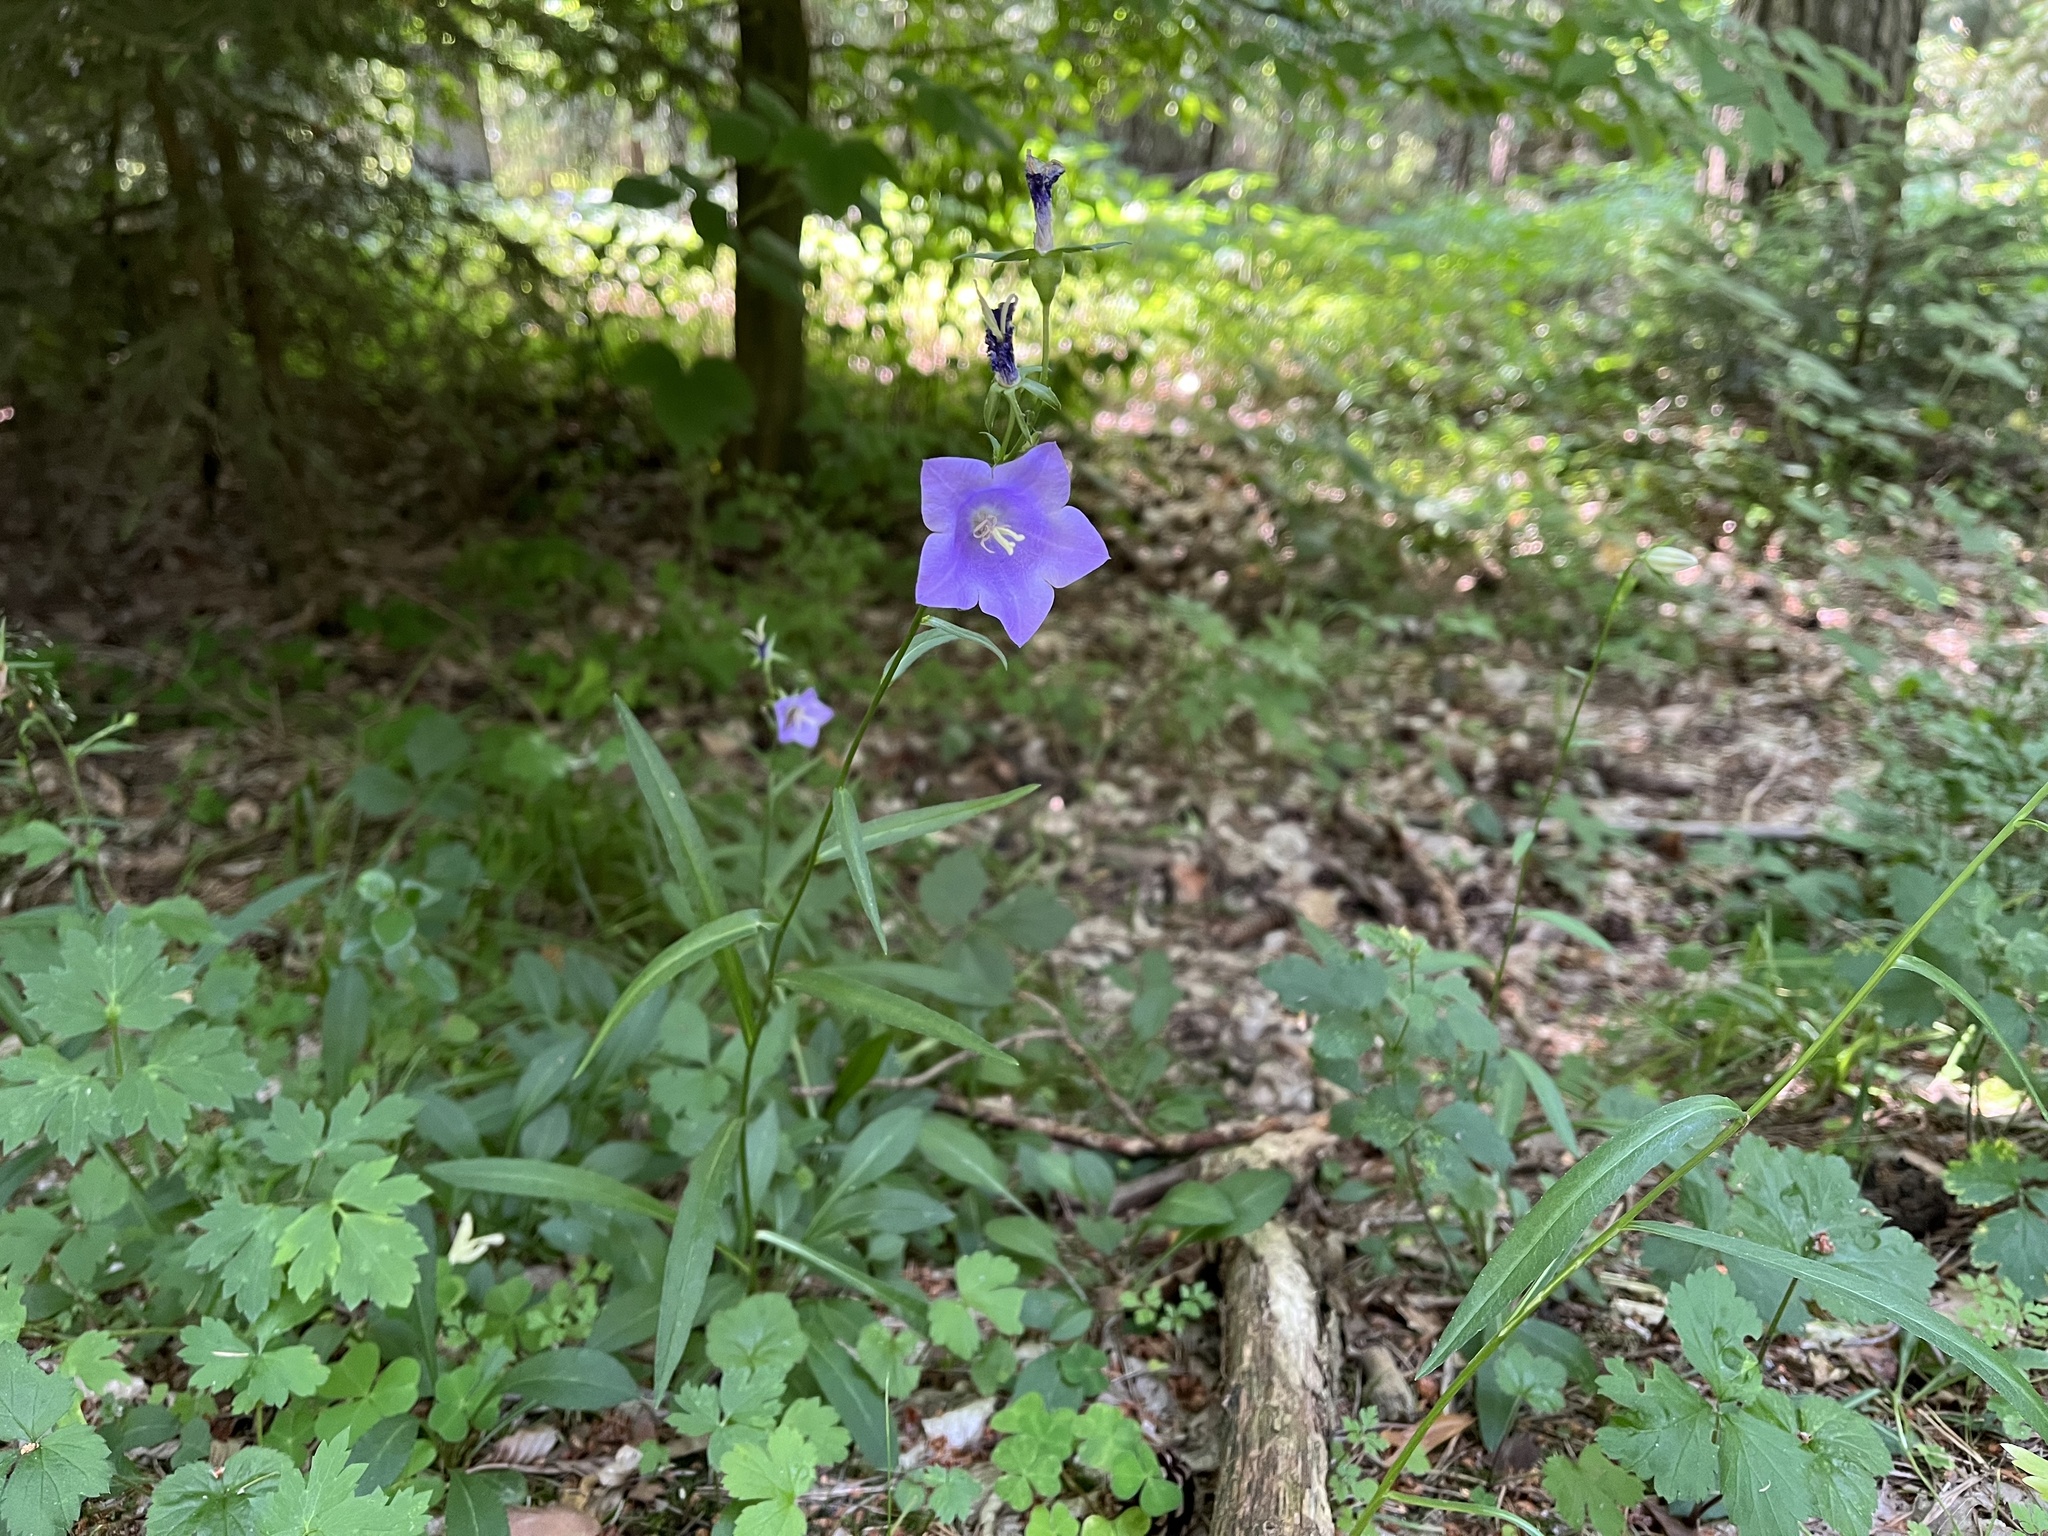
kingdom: Plantae
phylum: Tracheophyta
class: Magnoliopsida
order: Asterales
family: Campanulaceae
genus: Campanula
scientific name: Campanula persicifolia
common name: Peach-leaved bellflower
